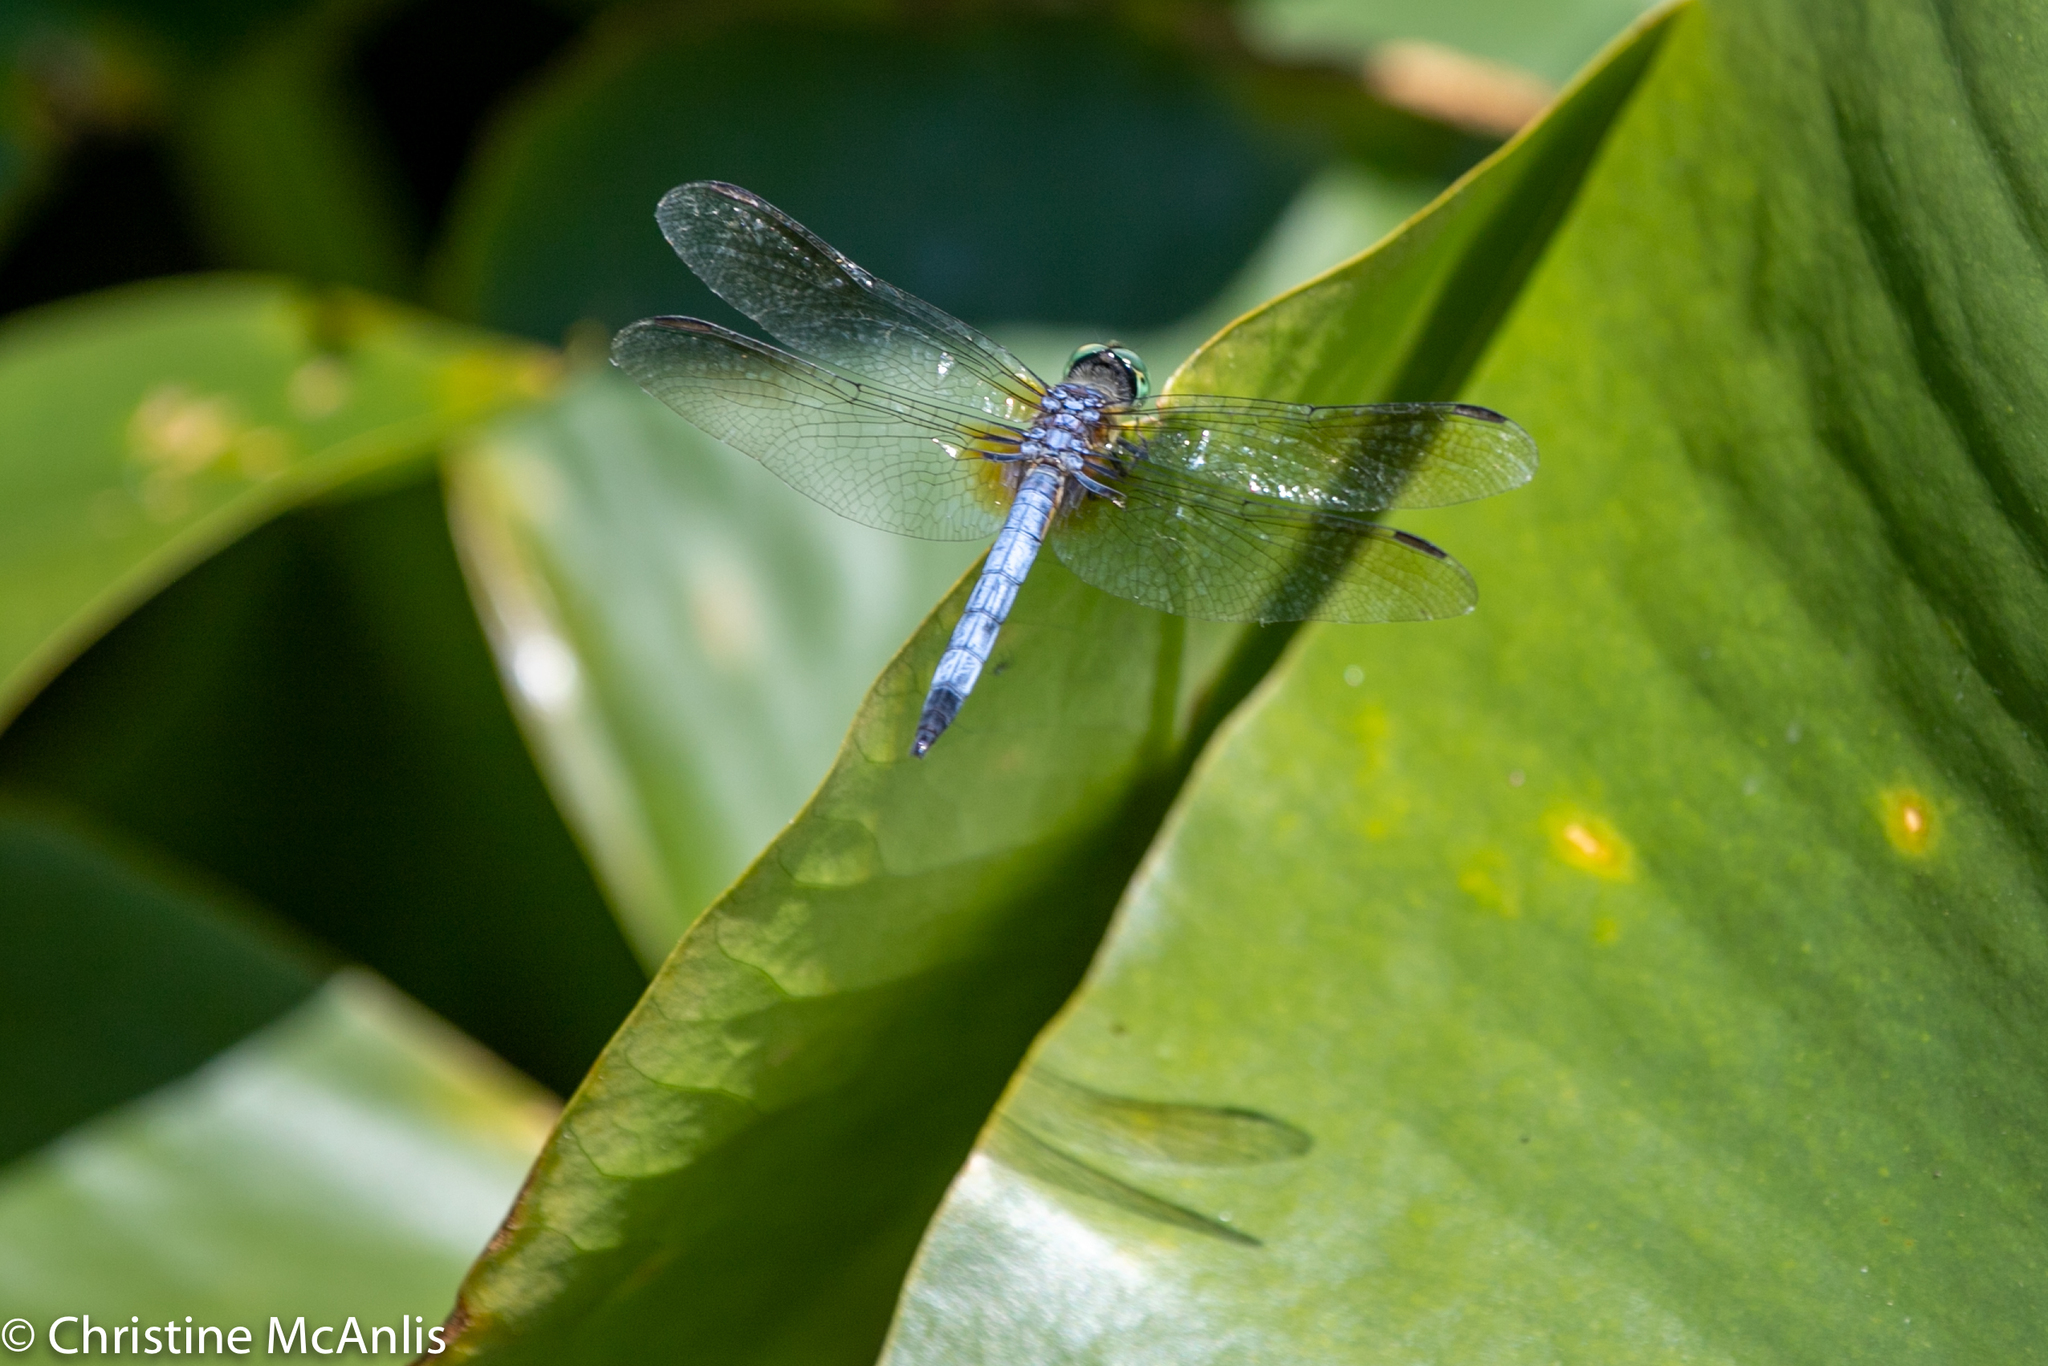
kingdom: Animalia
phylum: Arthropoda
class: Insecta
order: Odonata
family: Libellulidae
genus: Pachydiplax
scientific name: Pachydiplax longipennis
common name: Blue dasher
